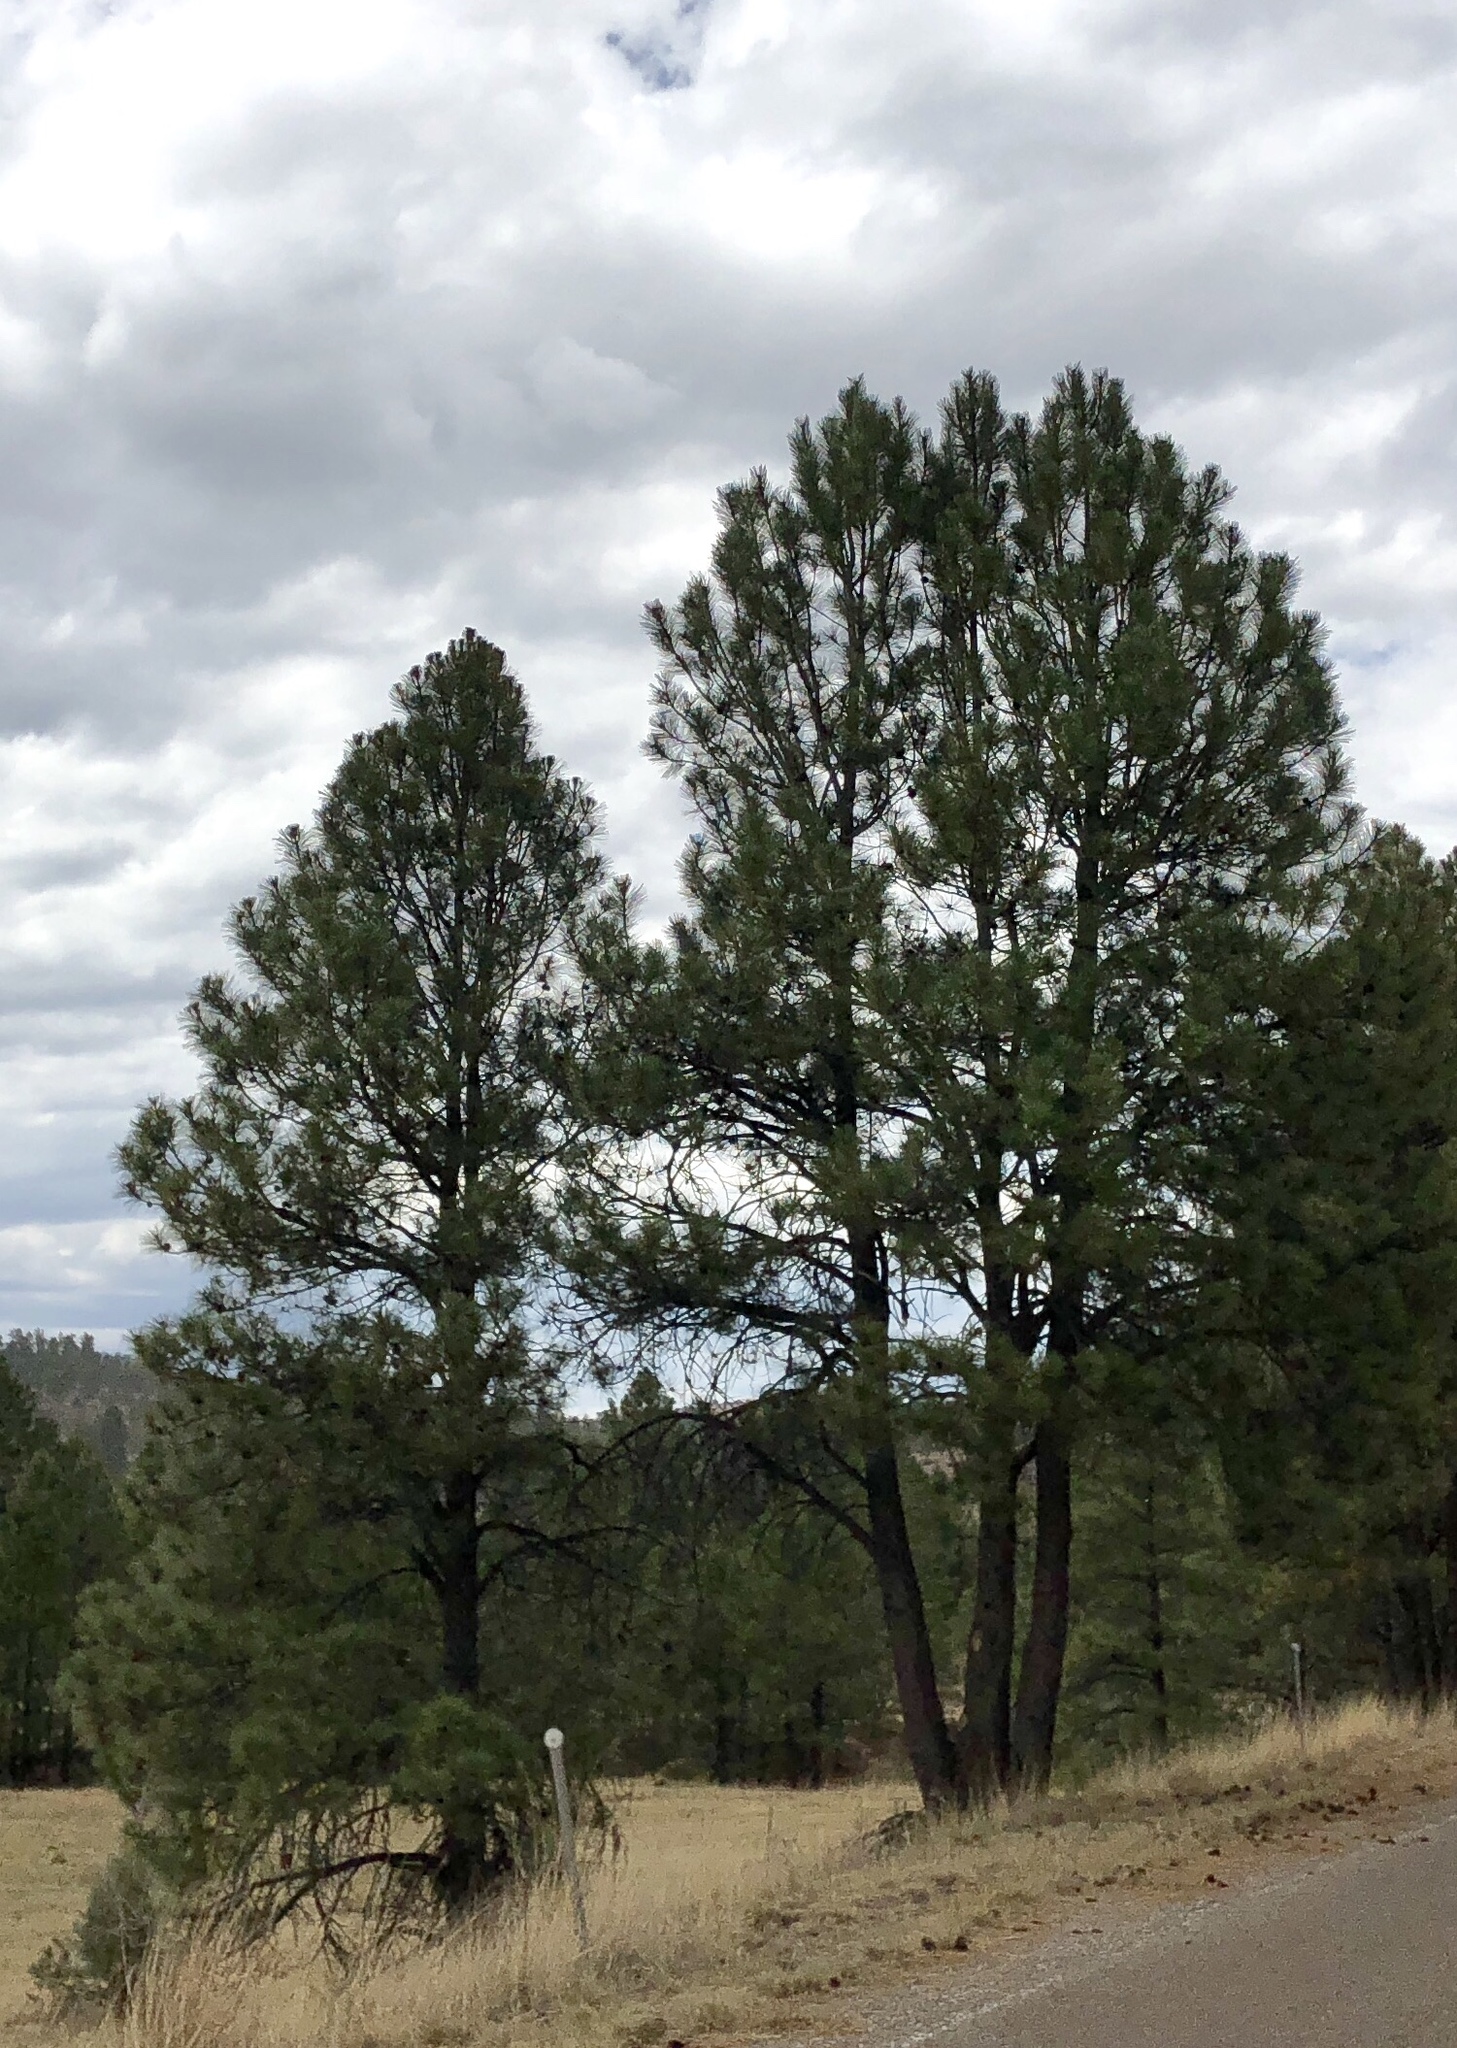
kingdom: Plantae
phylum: Tracheophyta
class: Pinopsida
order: Pinales
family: Pinaceae
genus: Pinus
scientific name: Pinus ponderosa
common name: Western yellow-pine
